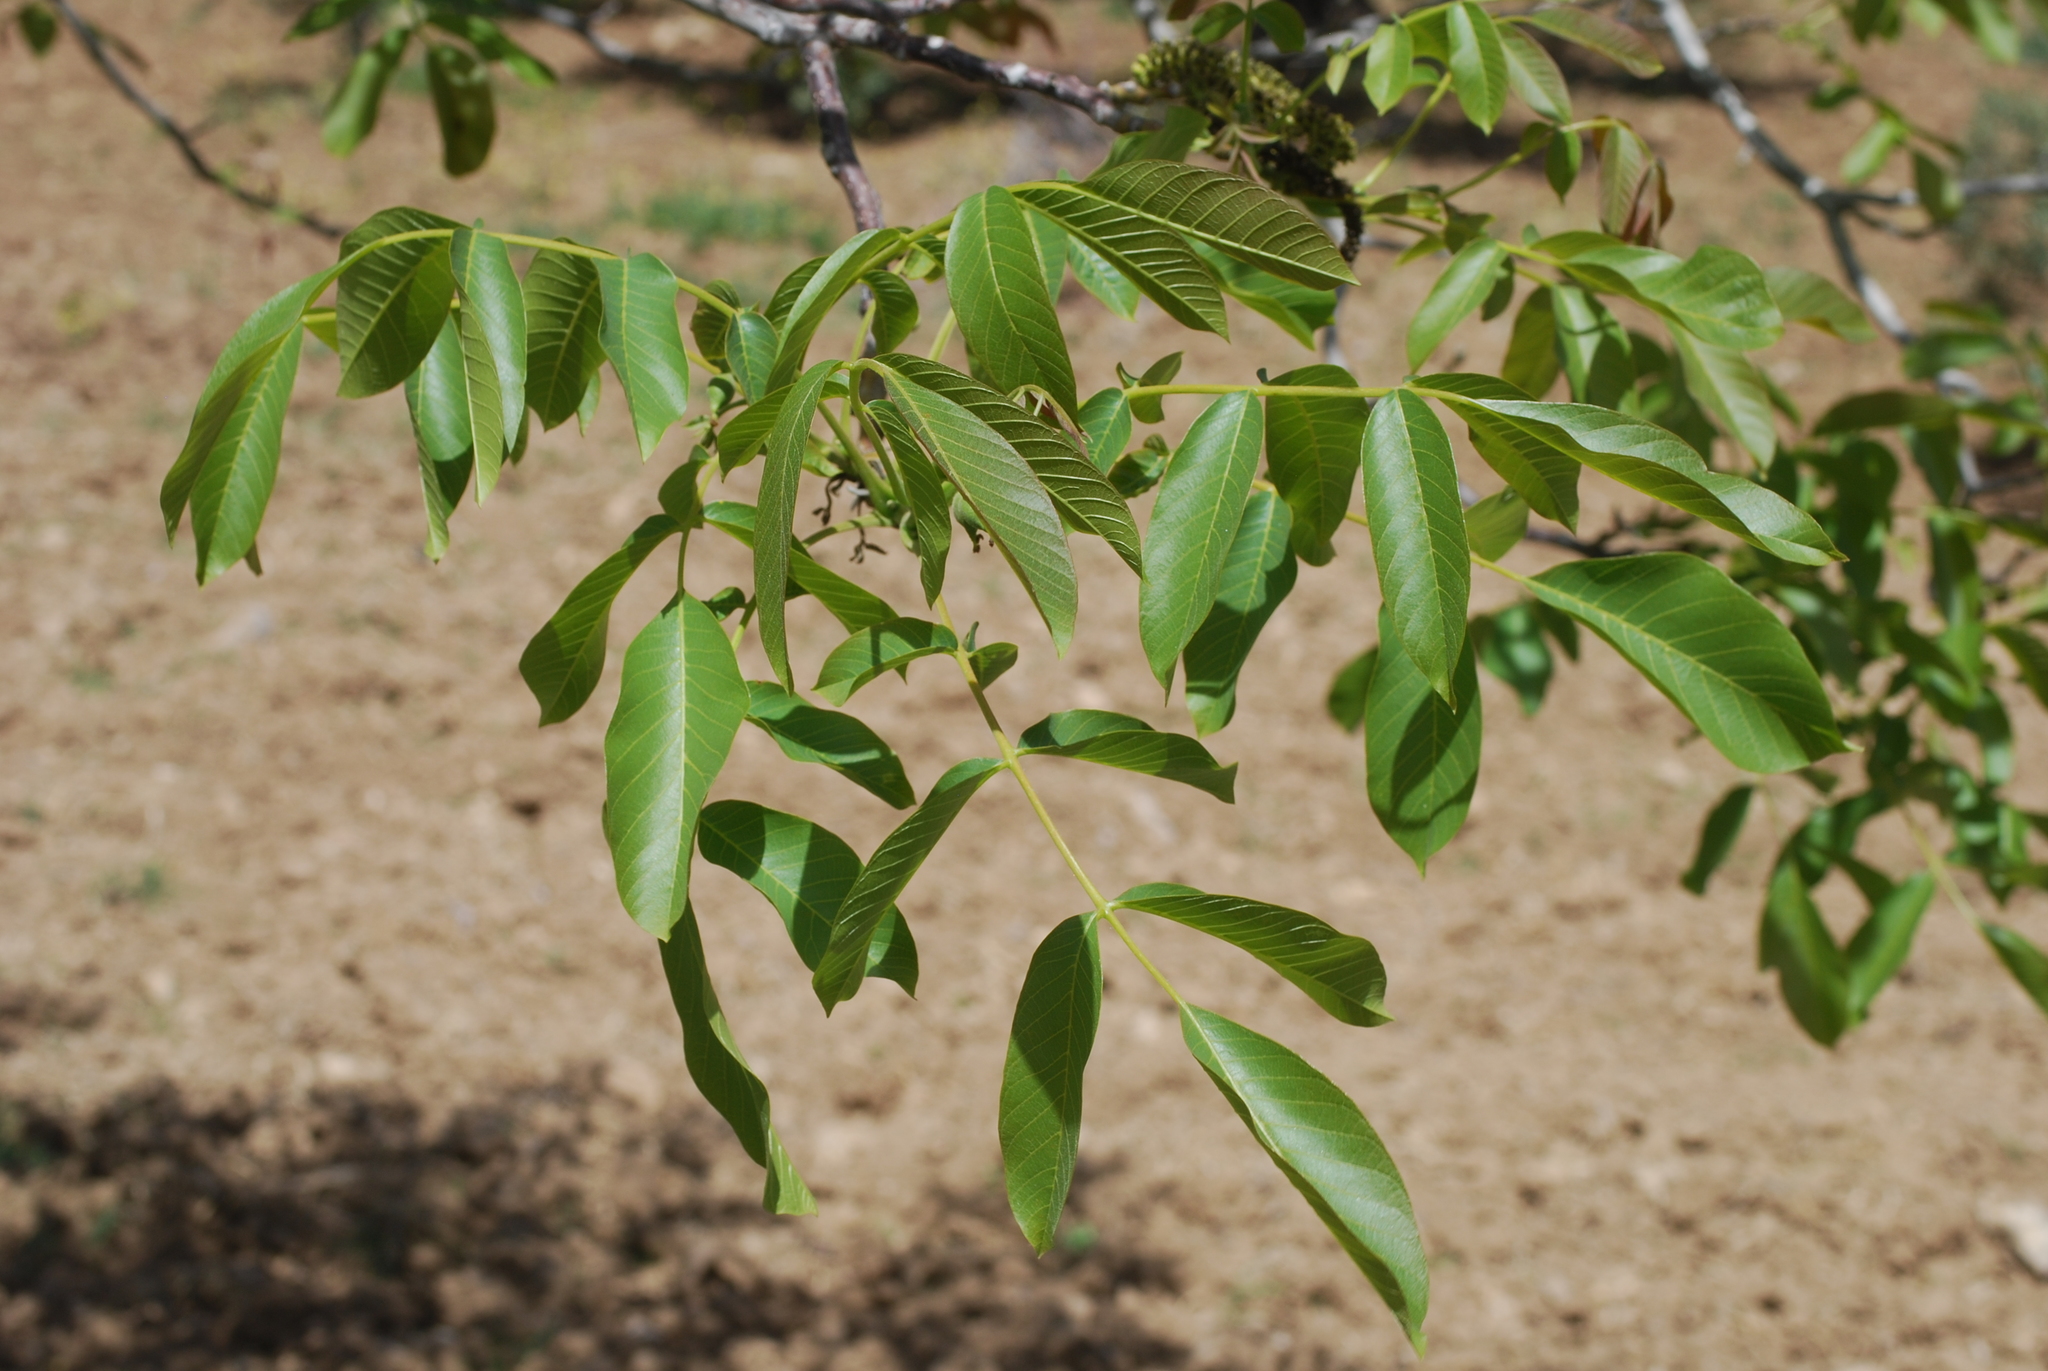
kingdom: Plantae
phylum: Tracheophyta
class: Magnoliopsida
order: Fagales
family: Juglandaceae
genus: Juglans
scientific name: Juglans regia
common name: Walnut
